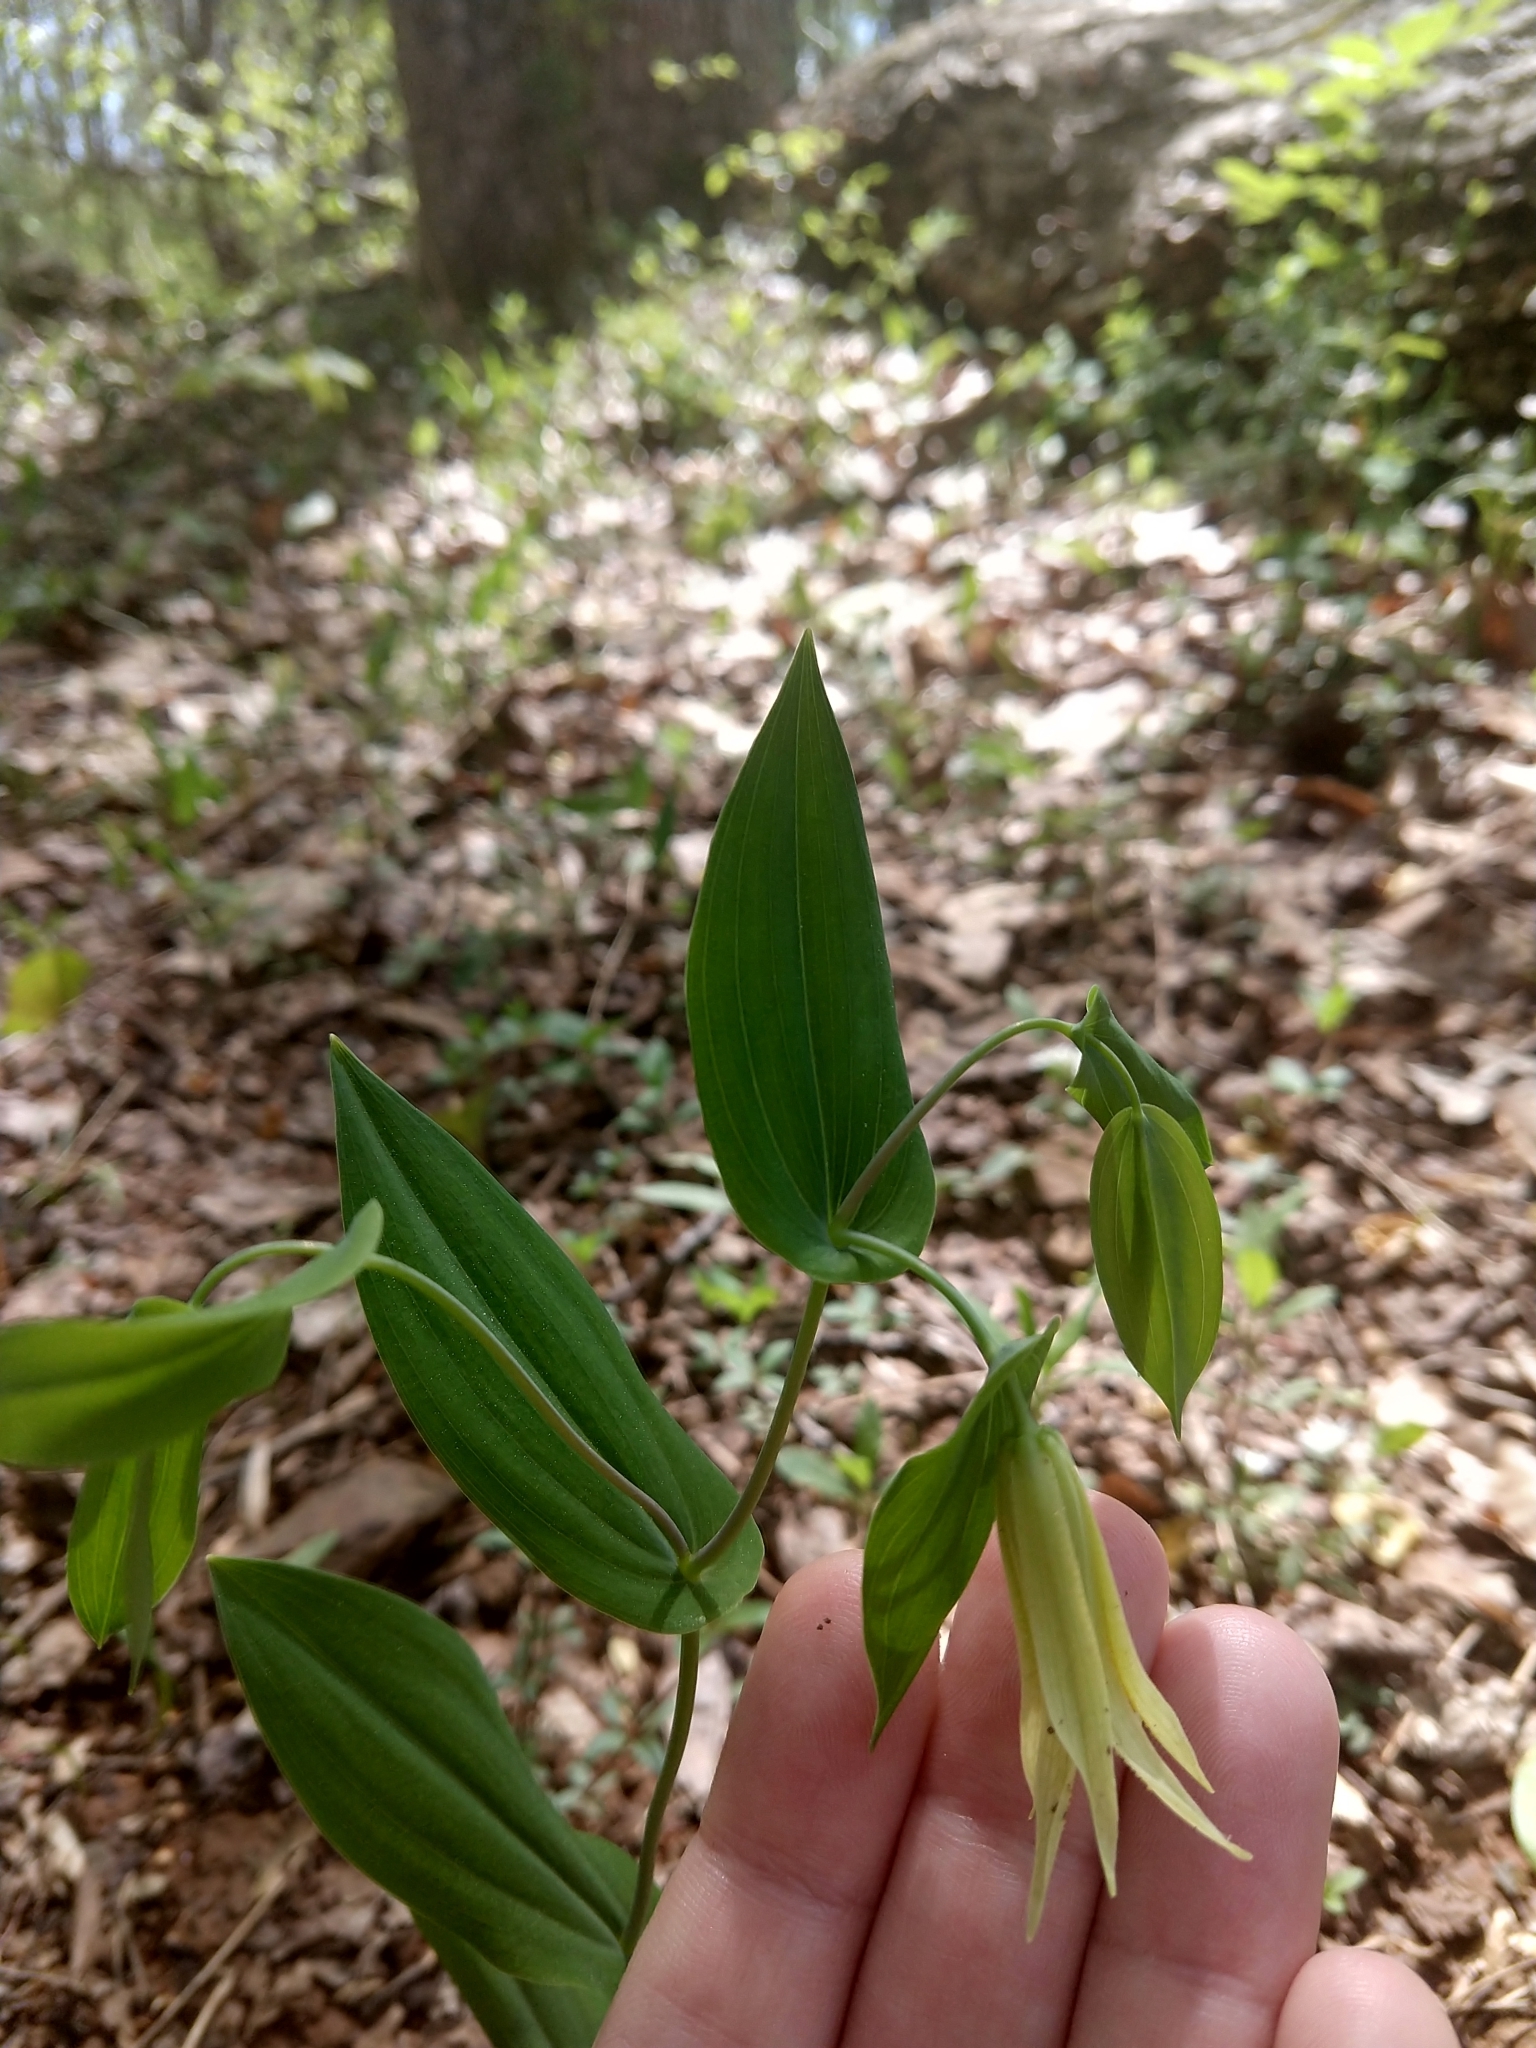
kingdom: Plantae
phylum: Tracheophyta
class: Liliopsida
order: Liliales
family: Colchicaceae
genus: Uvularia
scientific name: Uvularia perfoliata
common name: Perfoliate bellwort
